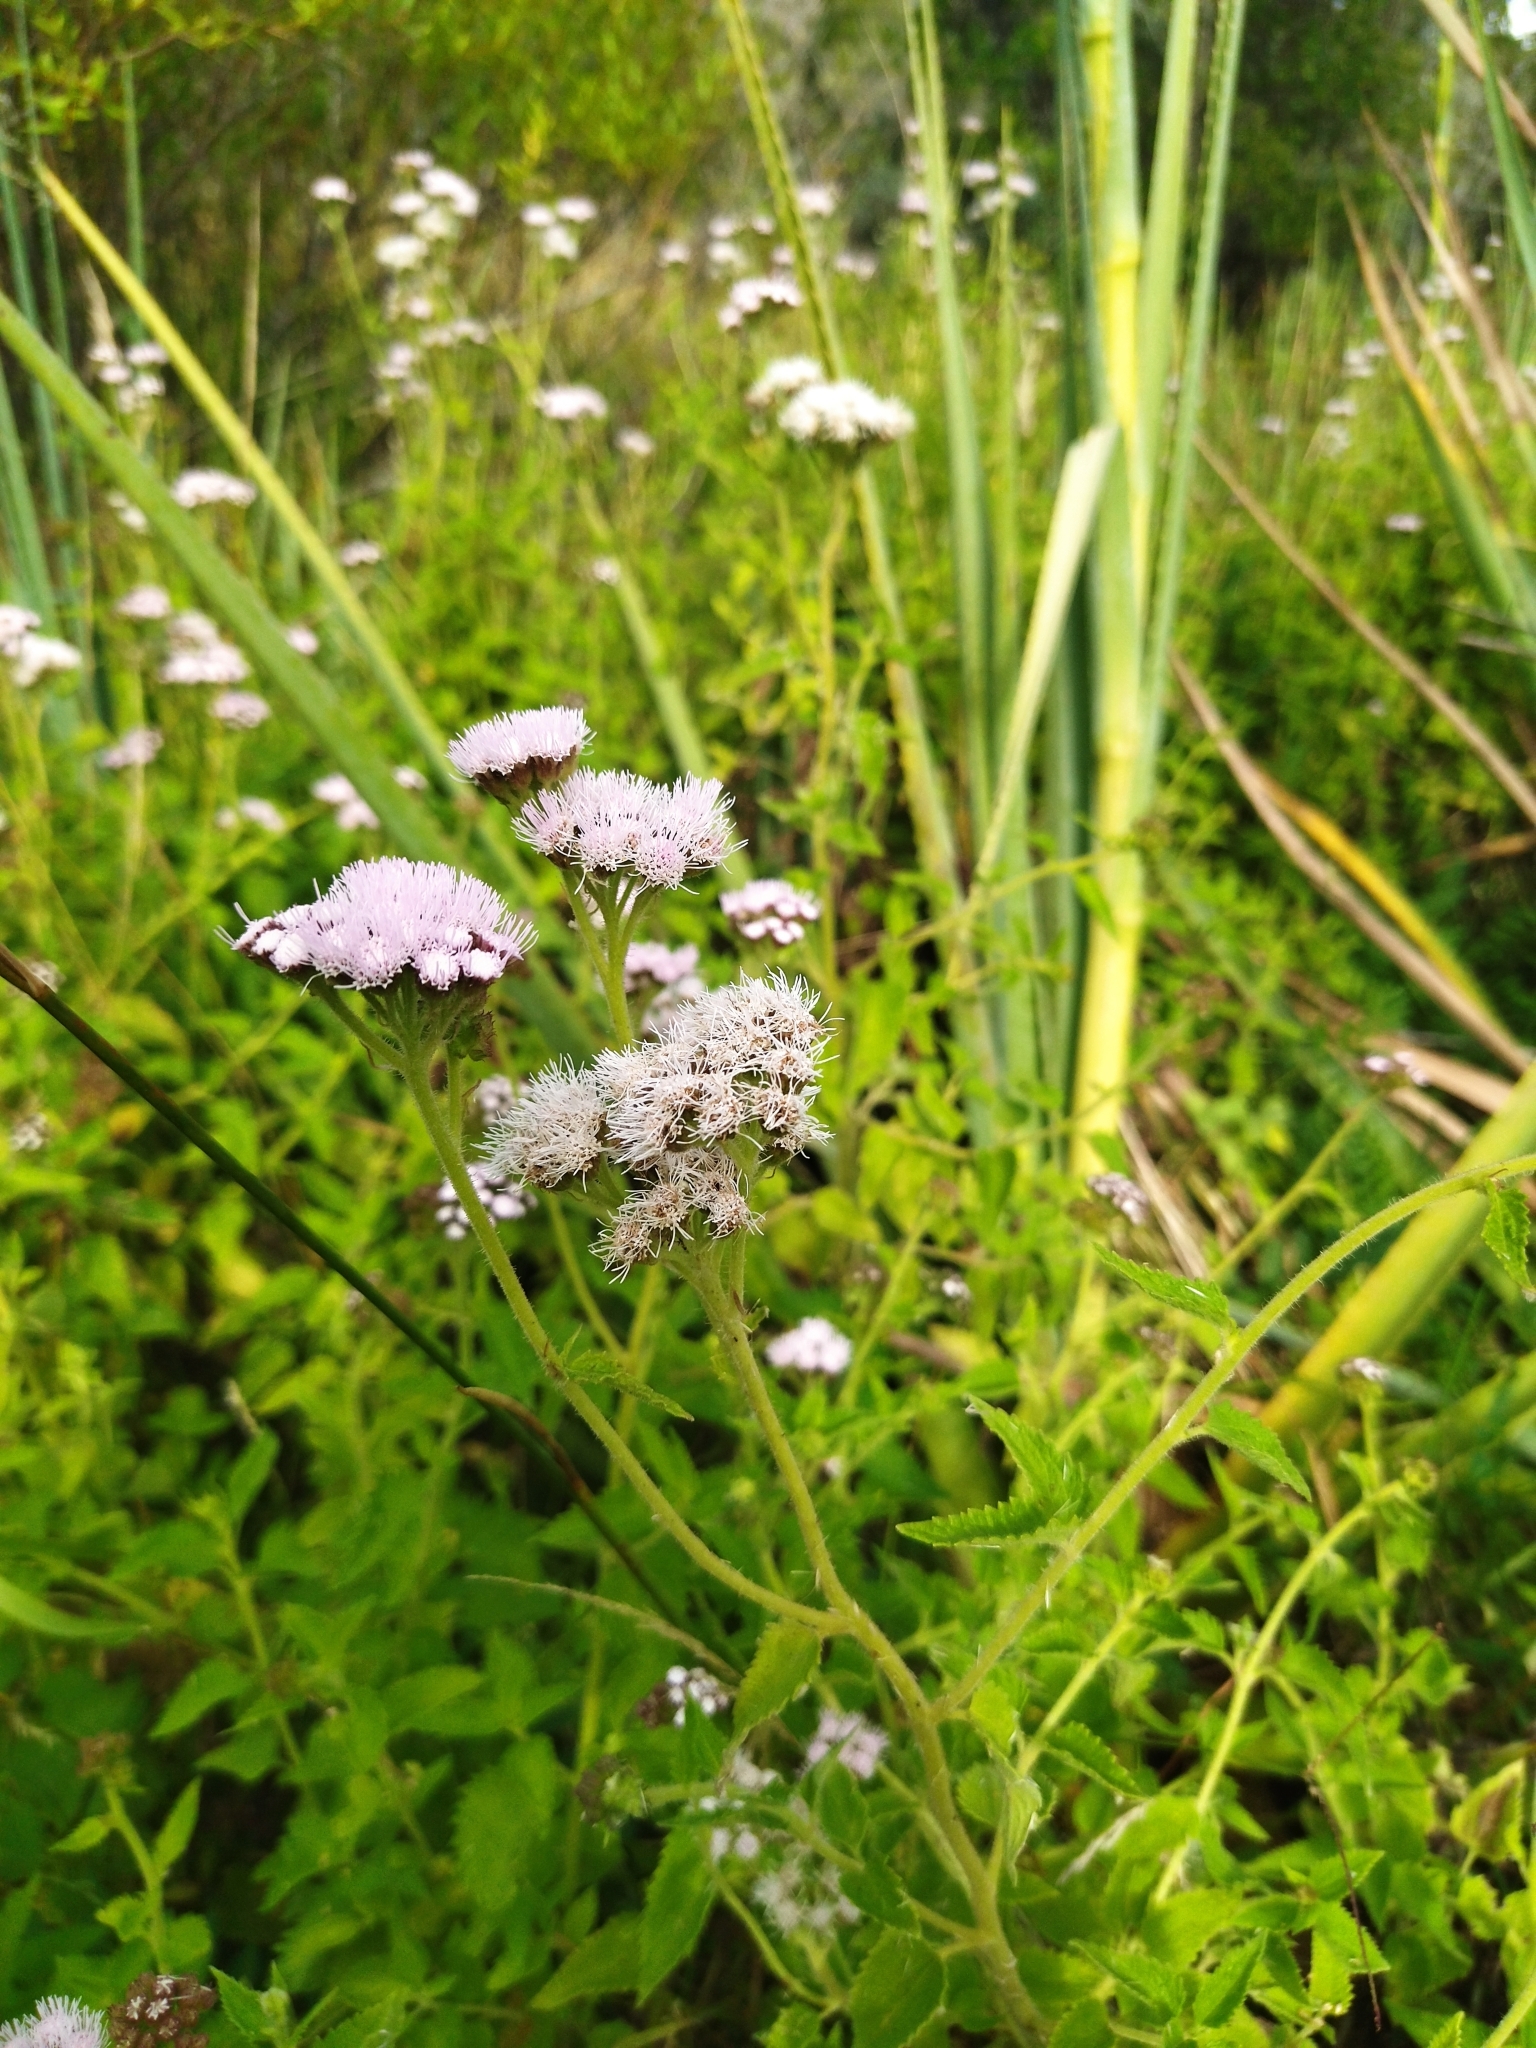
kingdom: Plantae
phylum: Tracheophyta
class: Magnoliopsida
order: Asterales
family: Asteraceae
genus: Barrosoa
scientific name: Barrosoa candolleana
